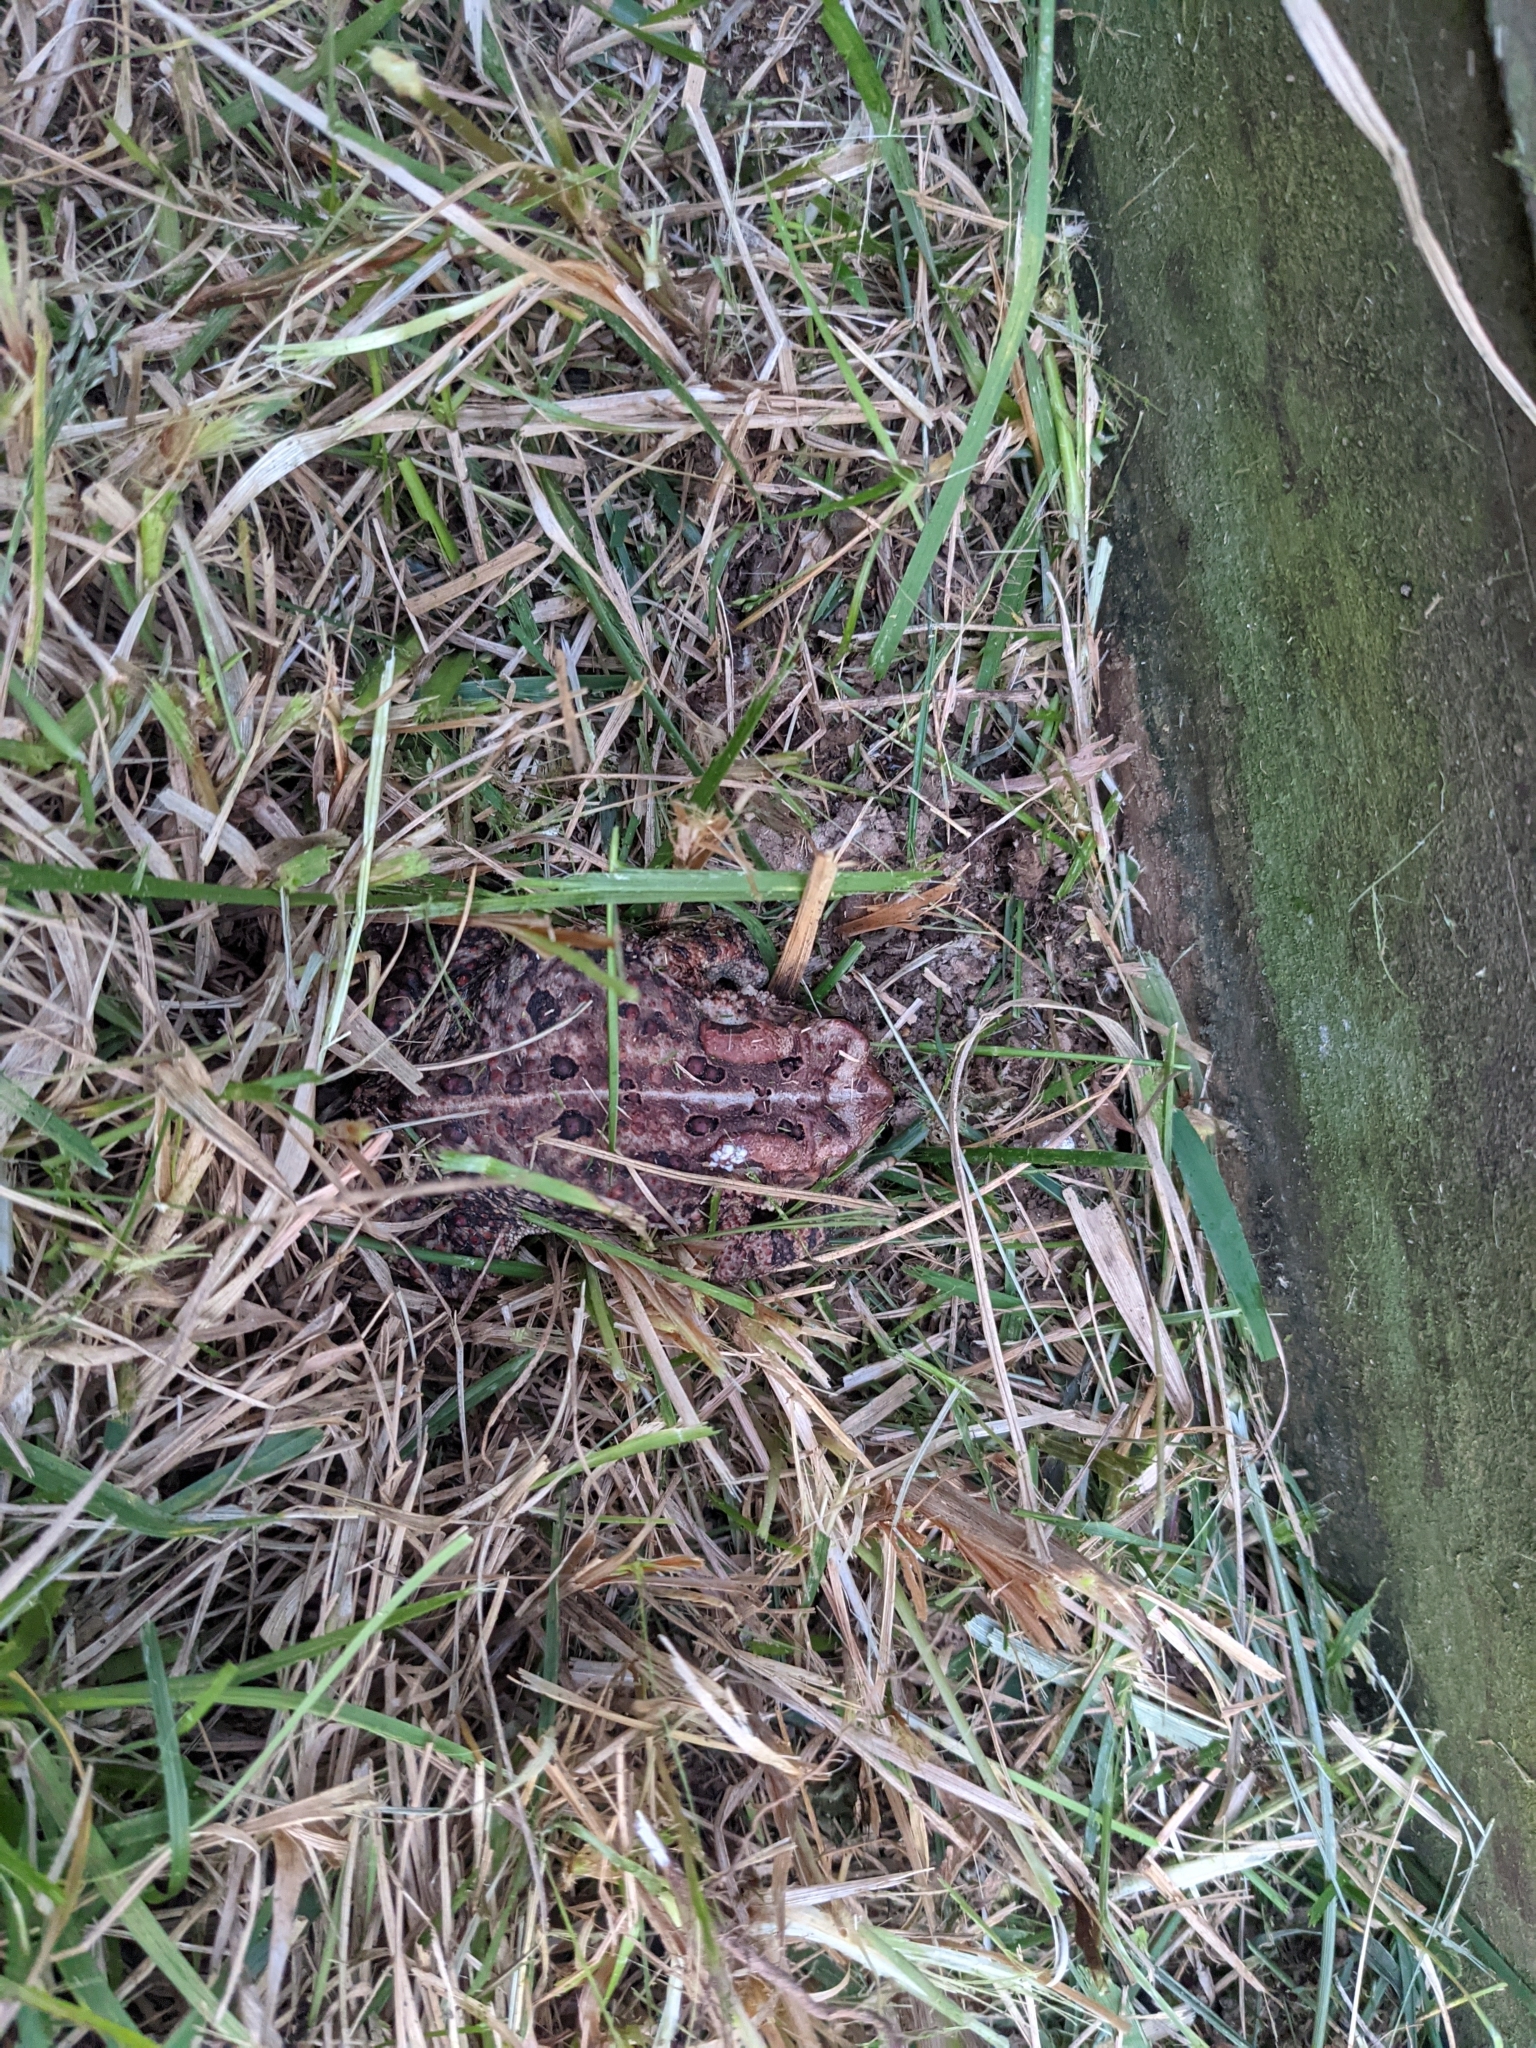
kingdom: Animalia
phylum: Chordata
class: Amphibia
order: Anura
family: Bufonidae
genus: Anaxyrus
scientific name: Anaxyrus americanus
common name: American toad
